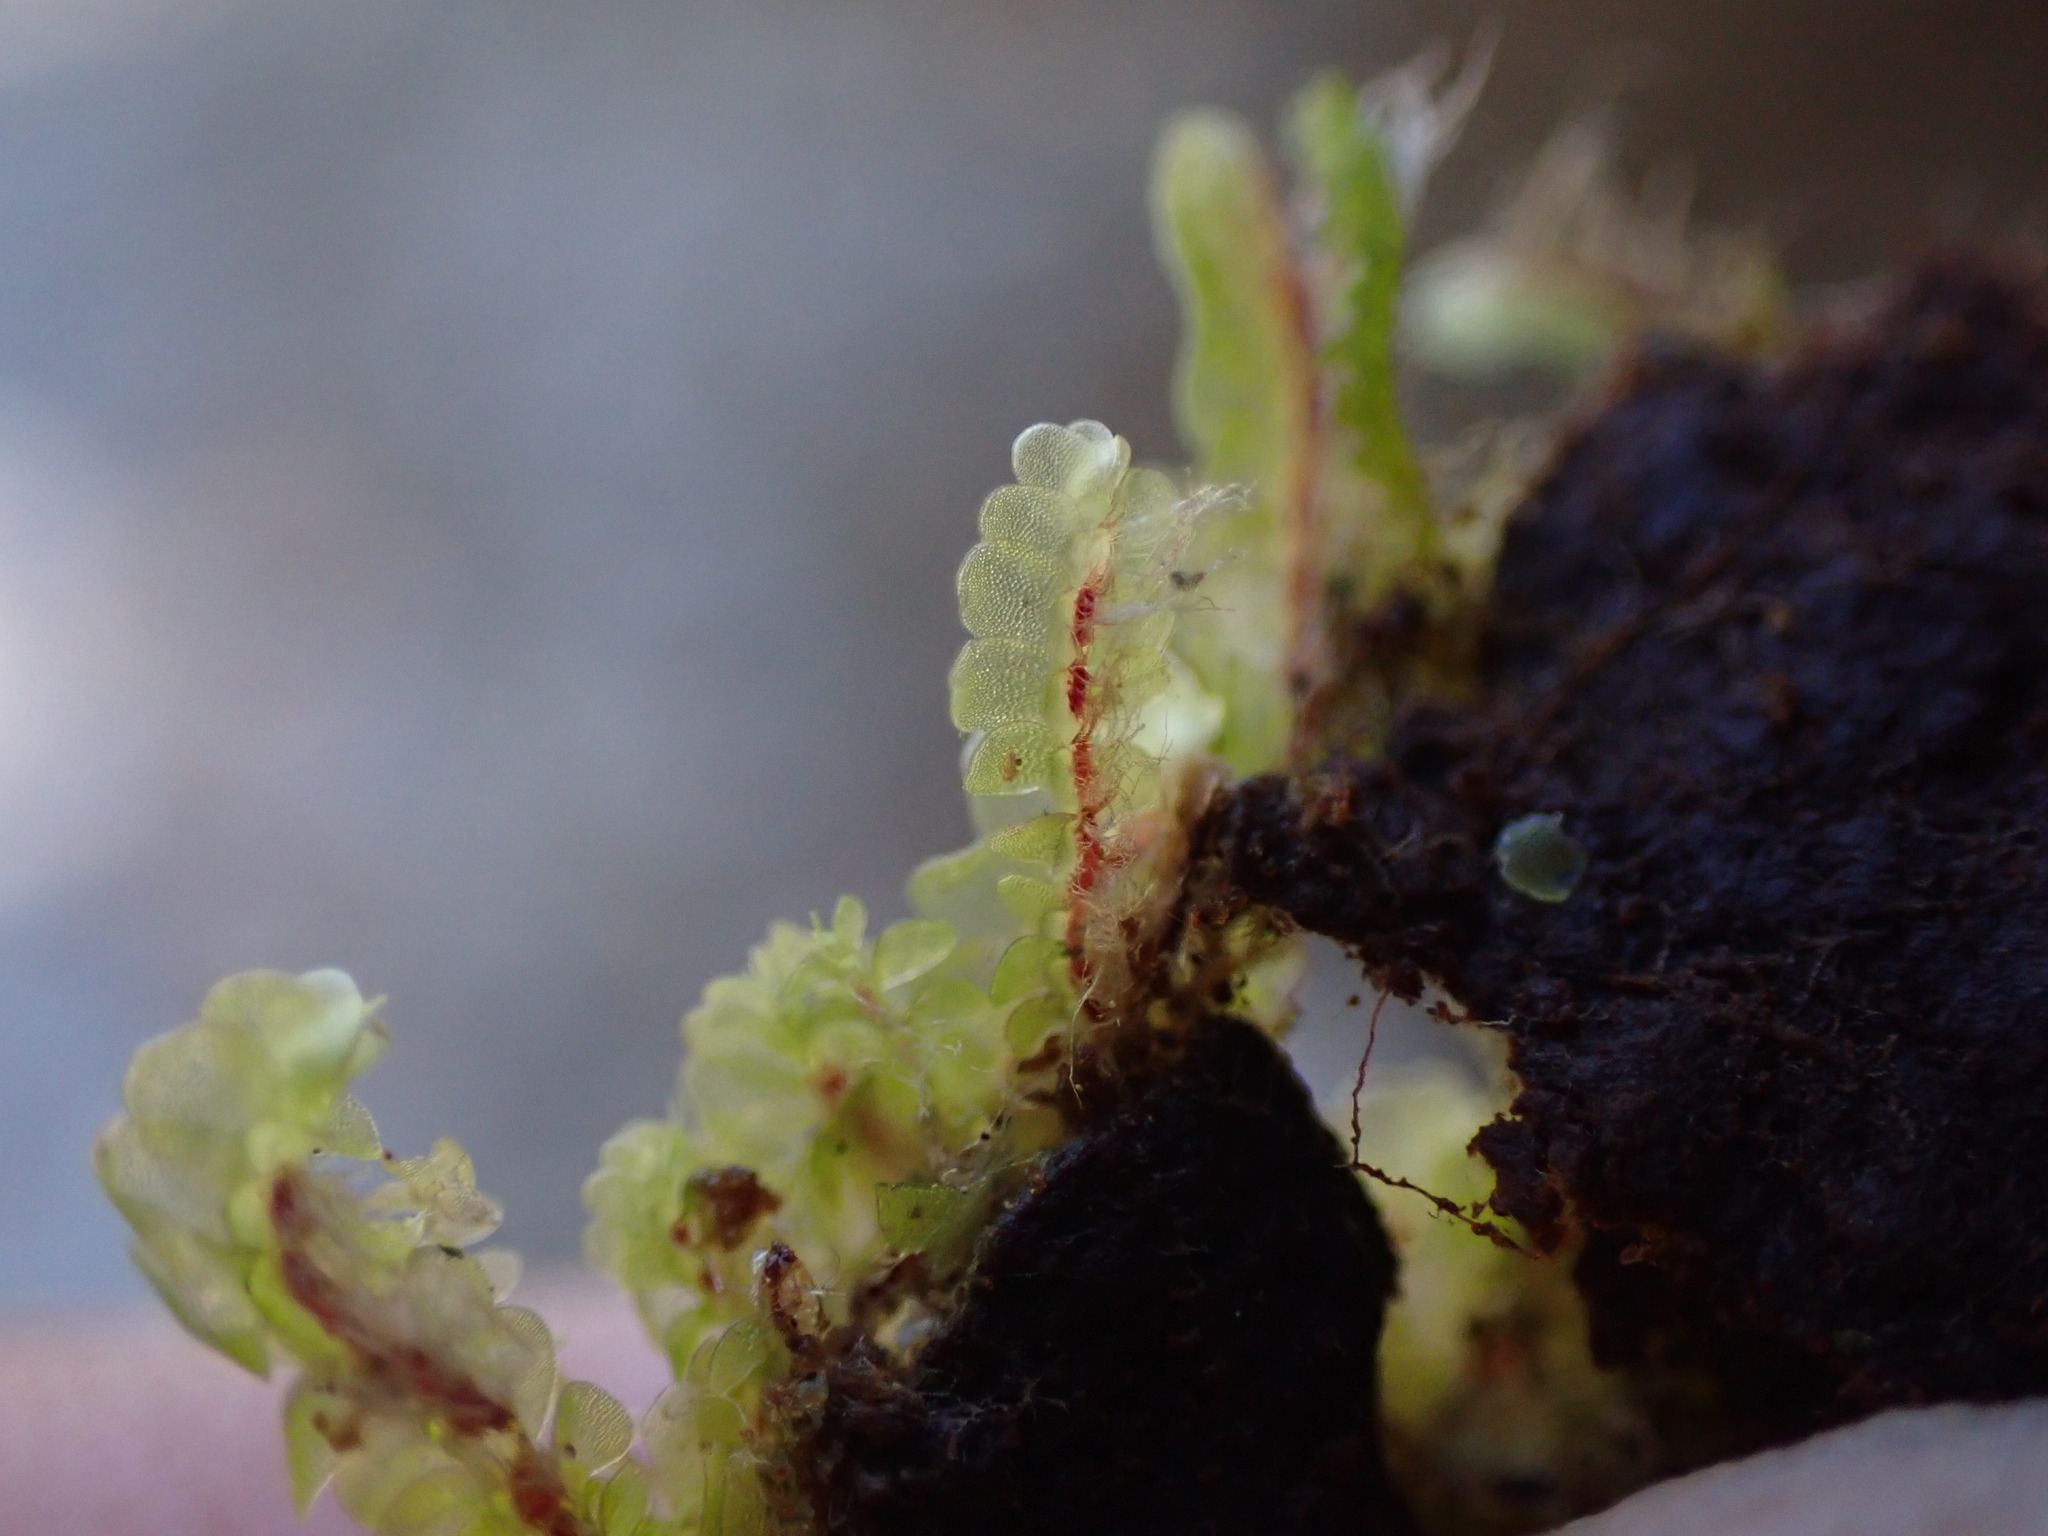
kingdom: Plantae
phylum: Marchantiophyta
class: Jungermanniopsida
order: Jungermanniales
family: Gyrothyraceae
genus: Gyrothyra
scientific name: Gyrothyra underwoodiana
